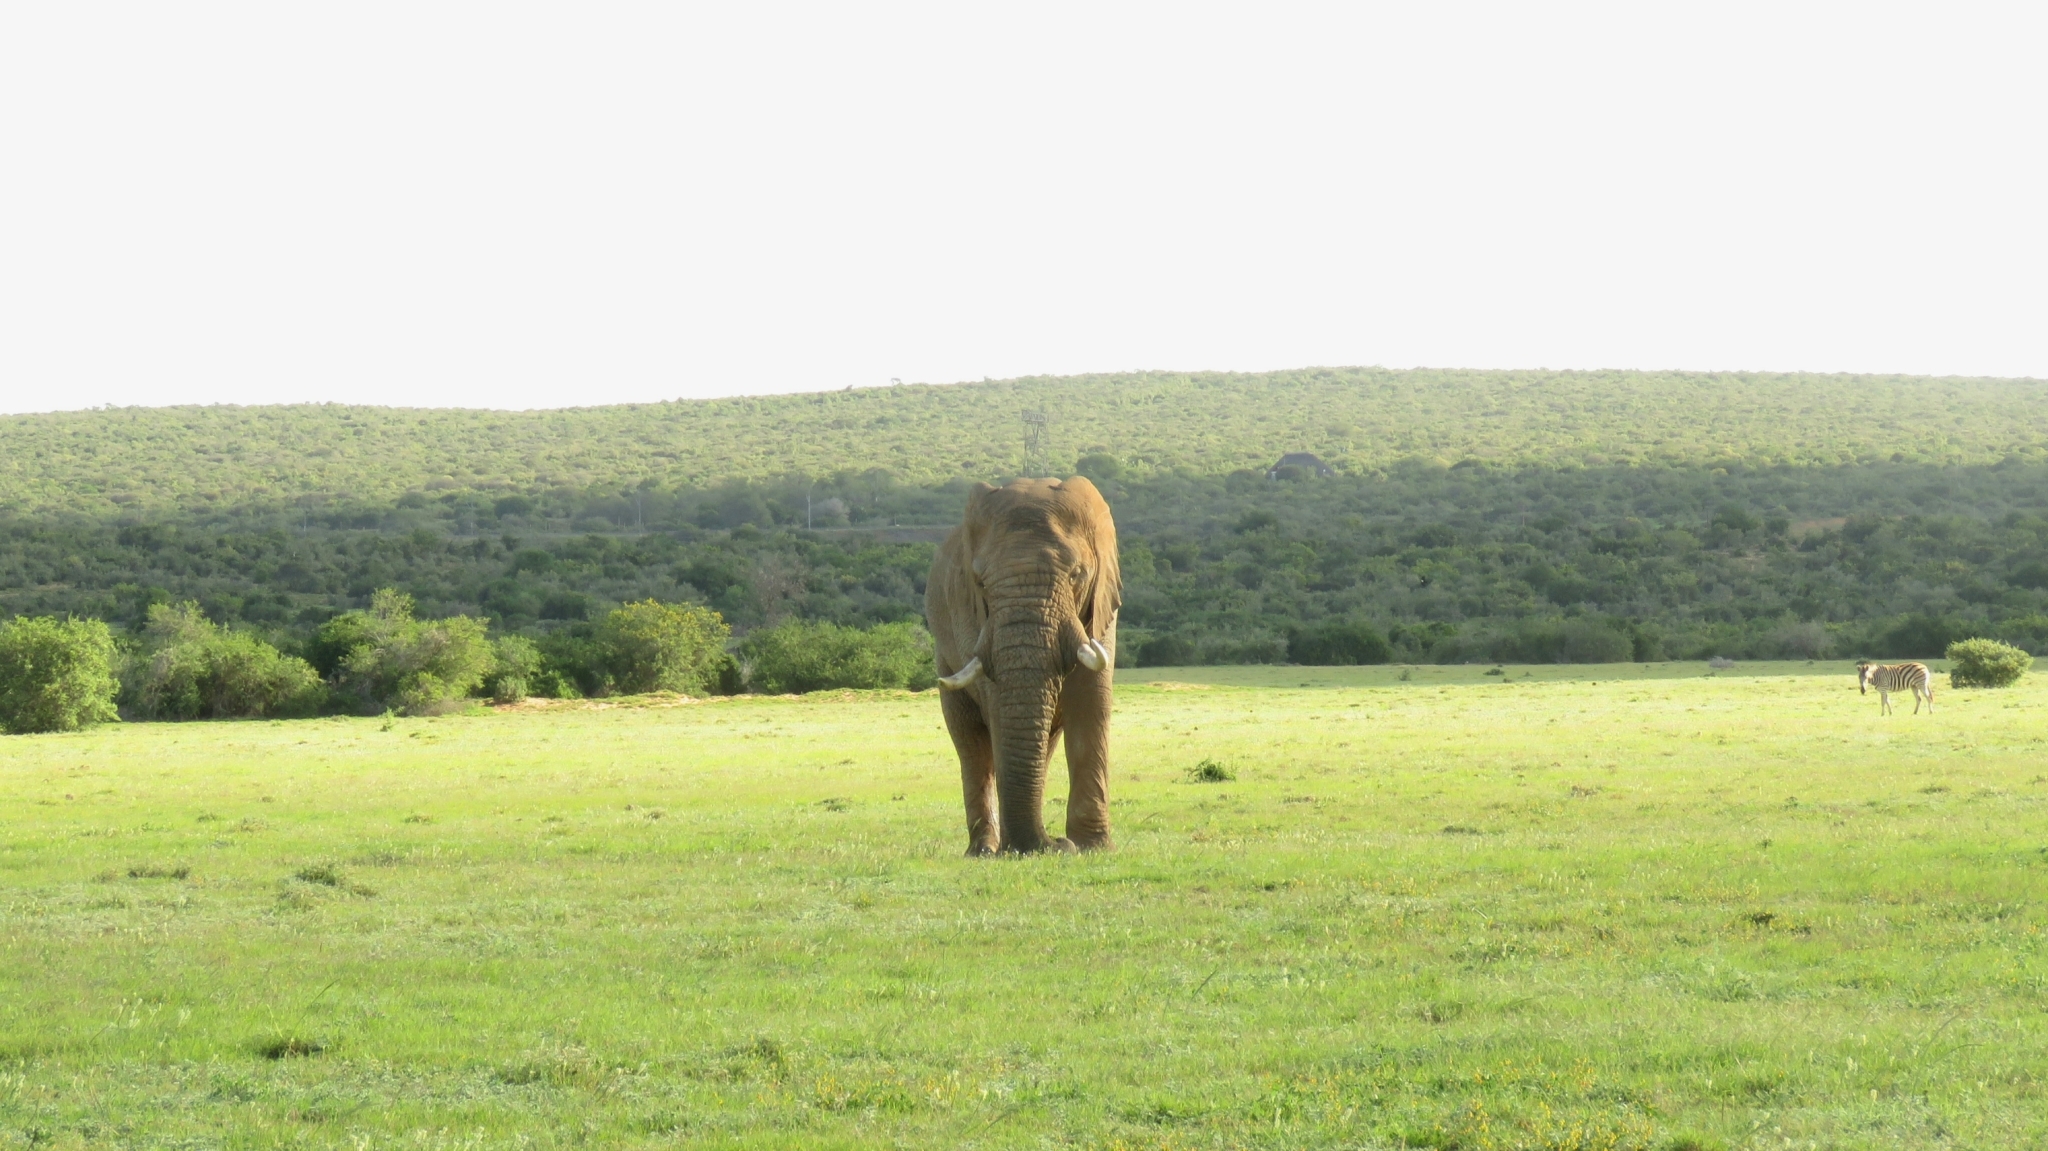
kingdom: Animalia
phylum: Chordata
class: Mammalia
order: Proboscidea
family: Elephantidae
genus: Loxodonta
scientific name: Loxodonta africana
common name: African elephant
